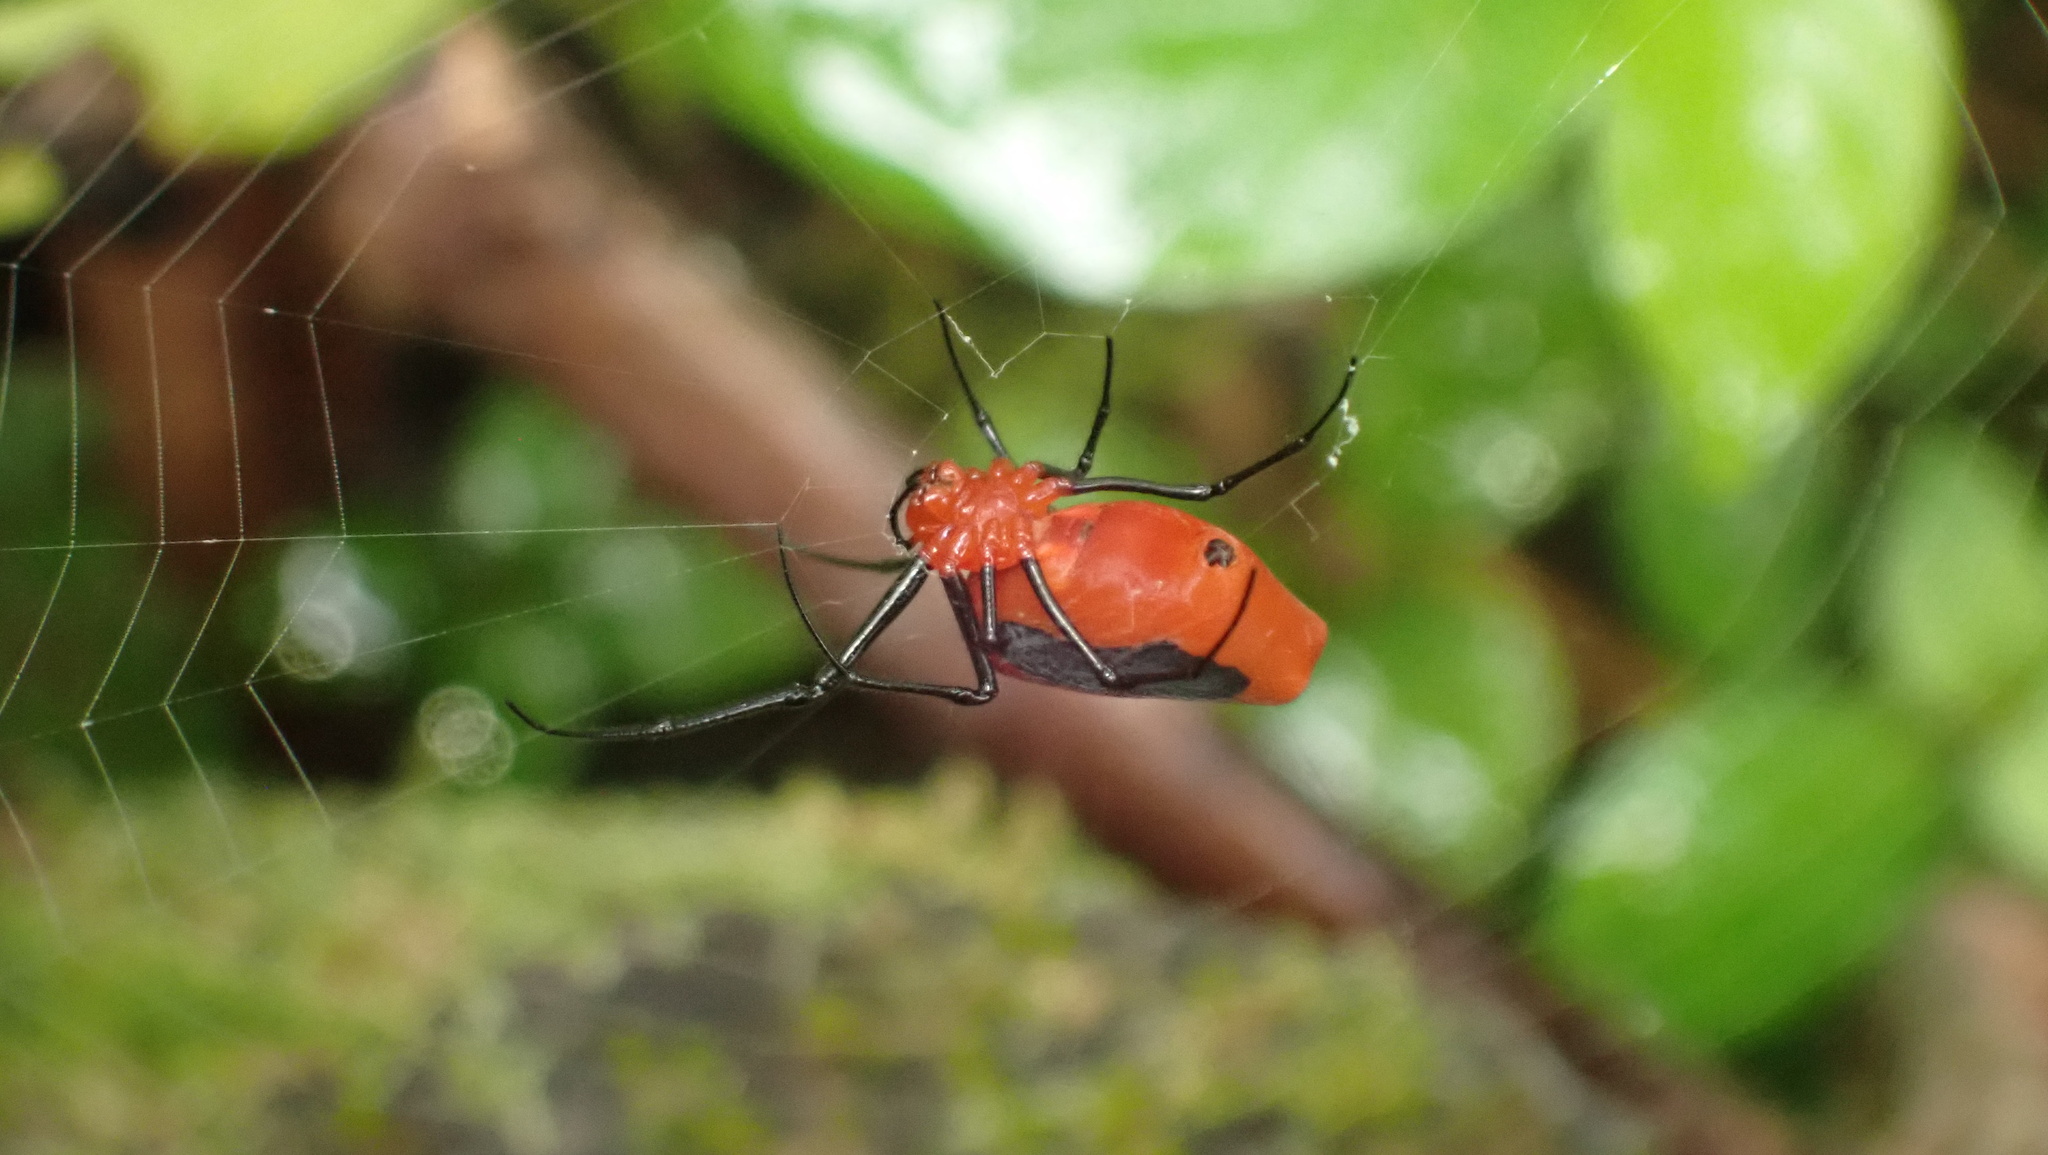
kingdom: Animalia
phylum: Arthropoda
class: Arachnida
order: Araneae
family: Tetragnathidae
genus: Leucauge
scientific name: Leucauge licina
